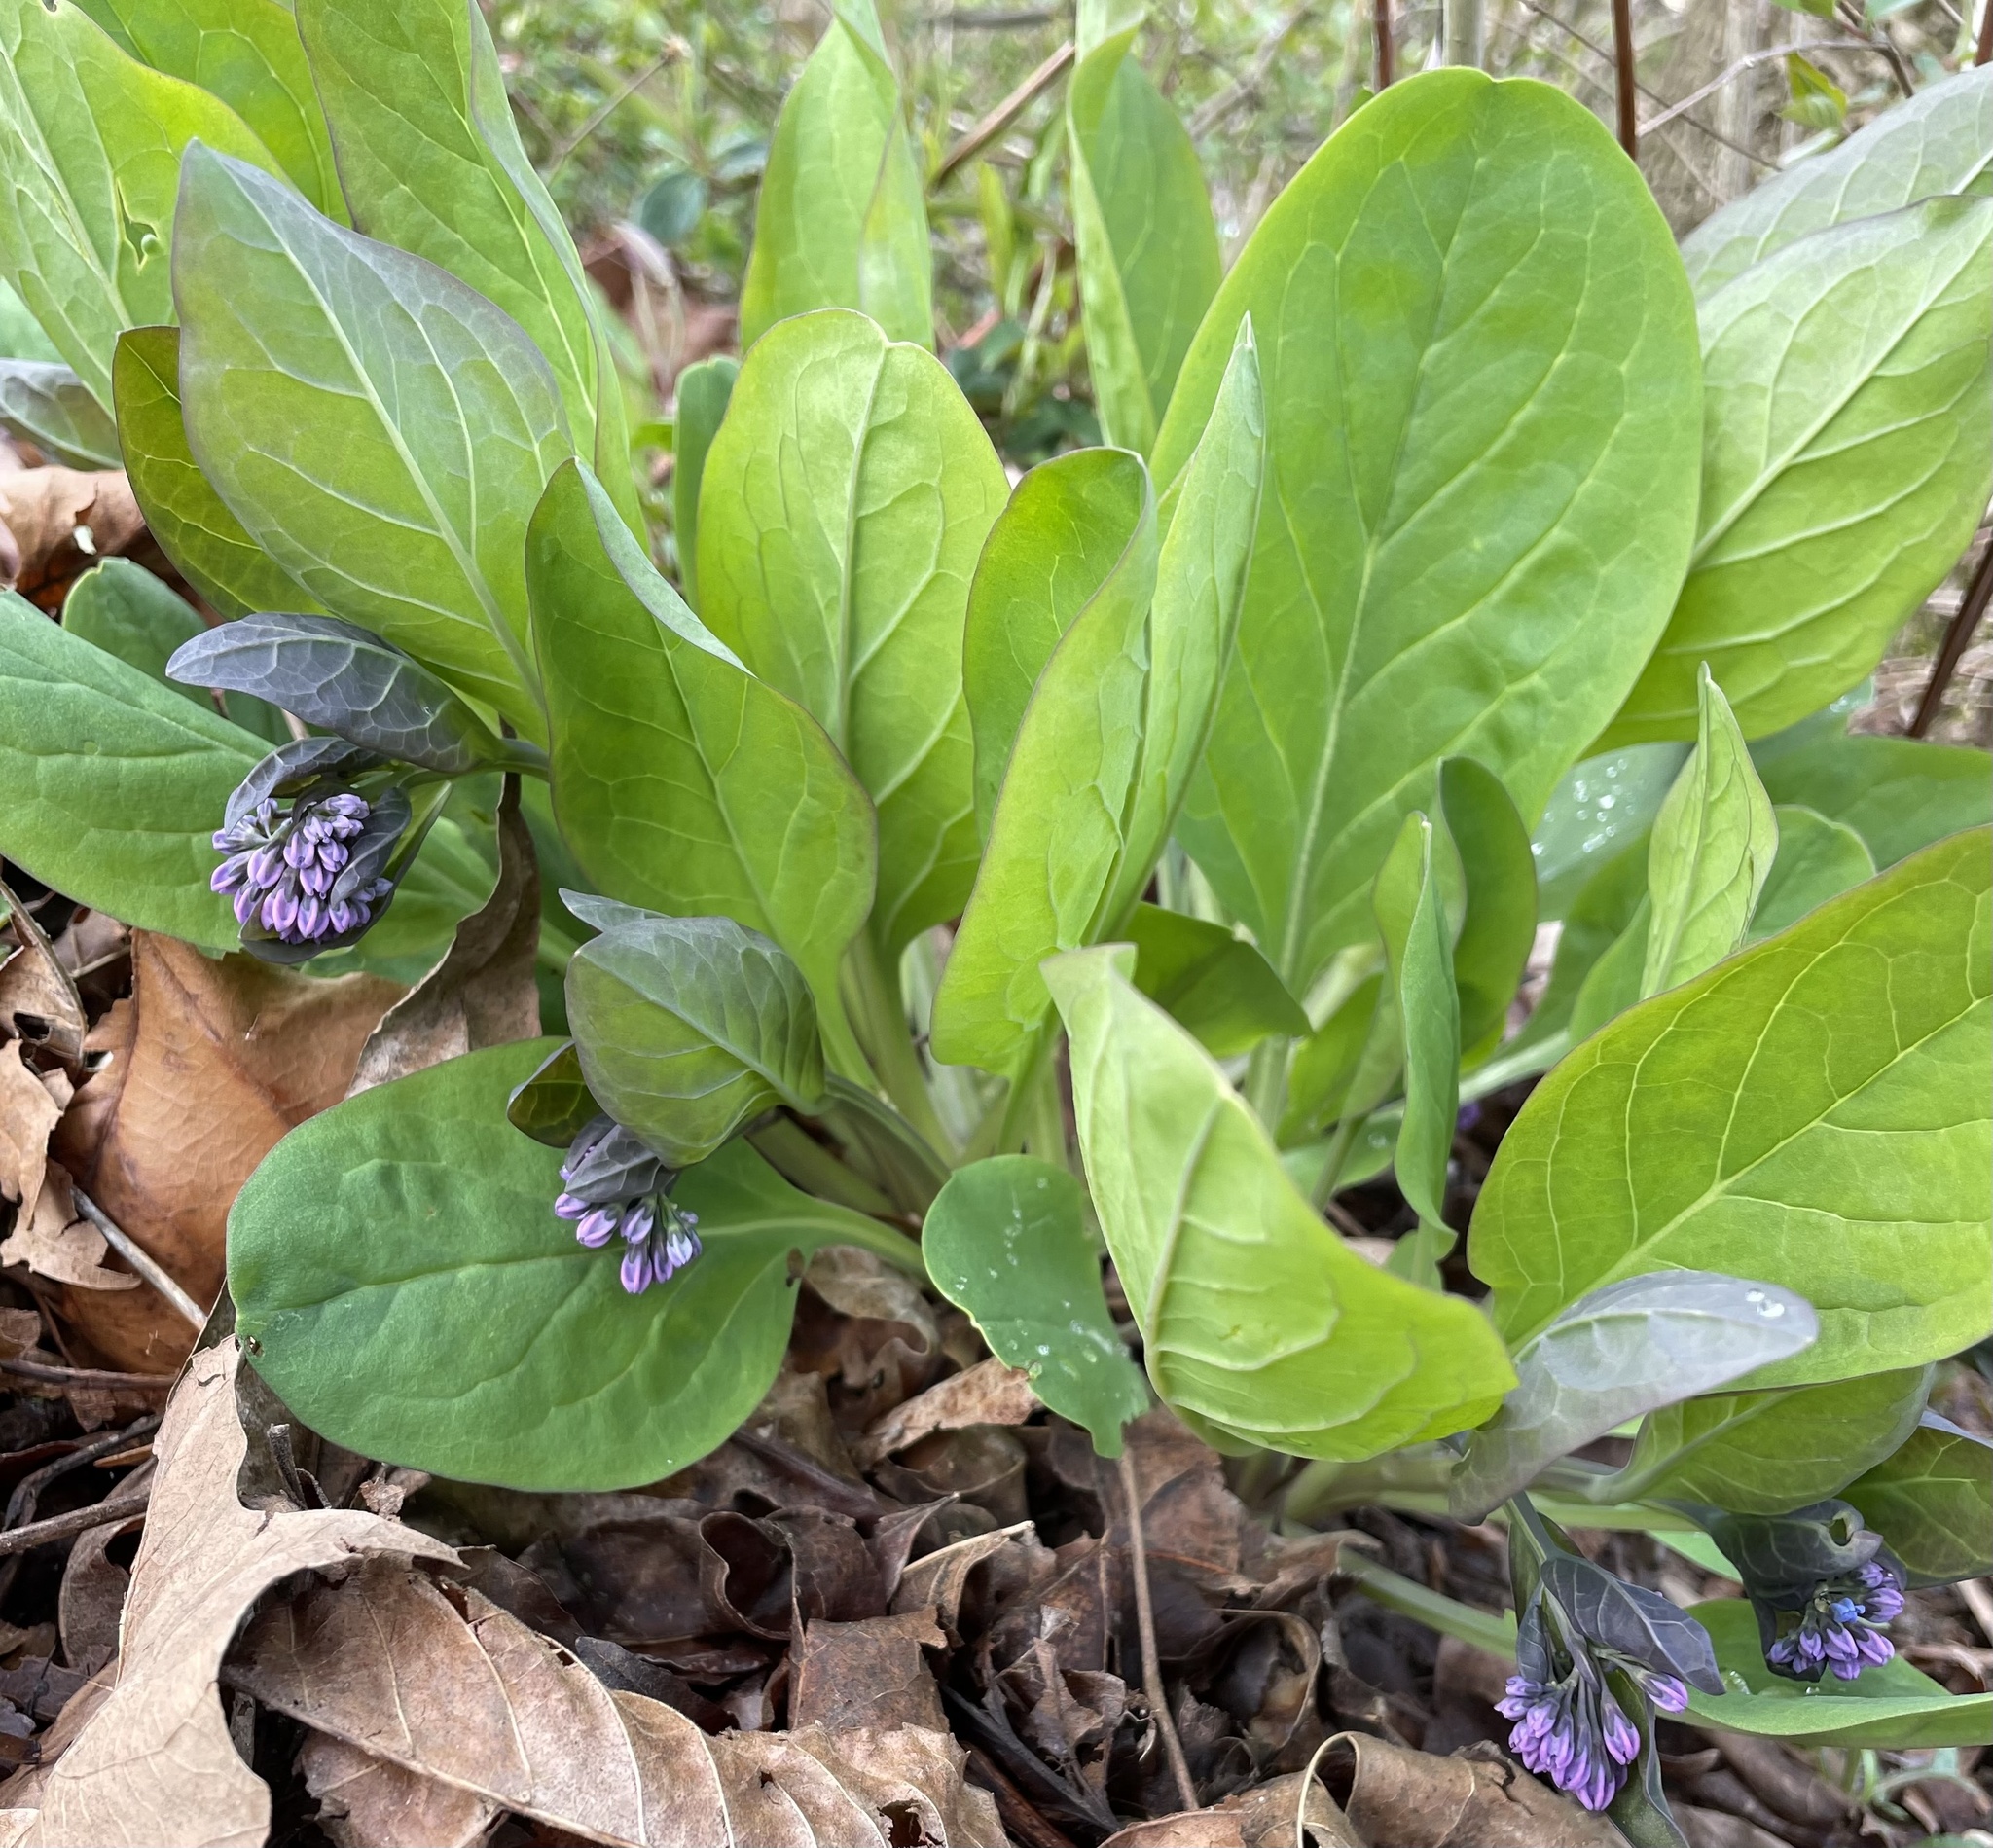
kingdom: Plantae
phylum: Tracheophyta
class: Magnoliopsida
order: Boraginales
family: Boraginaceae
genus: Mertensia
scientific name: Mertensia virginica
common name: Virginia bluebells
